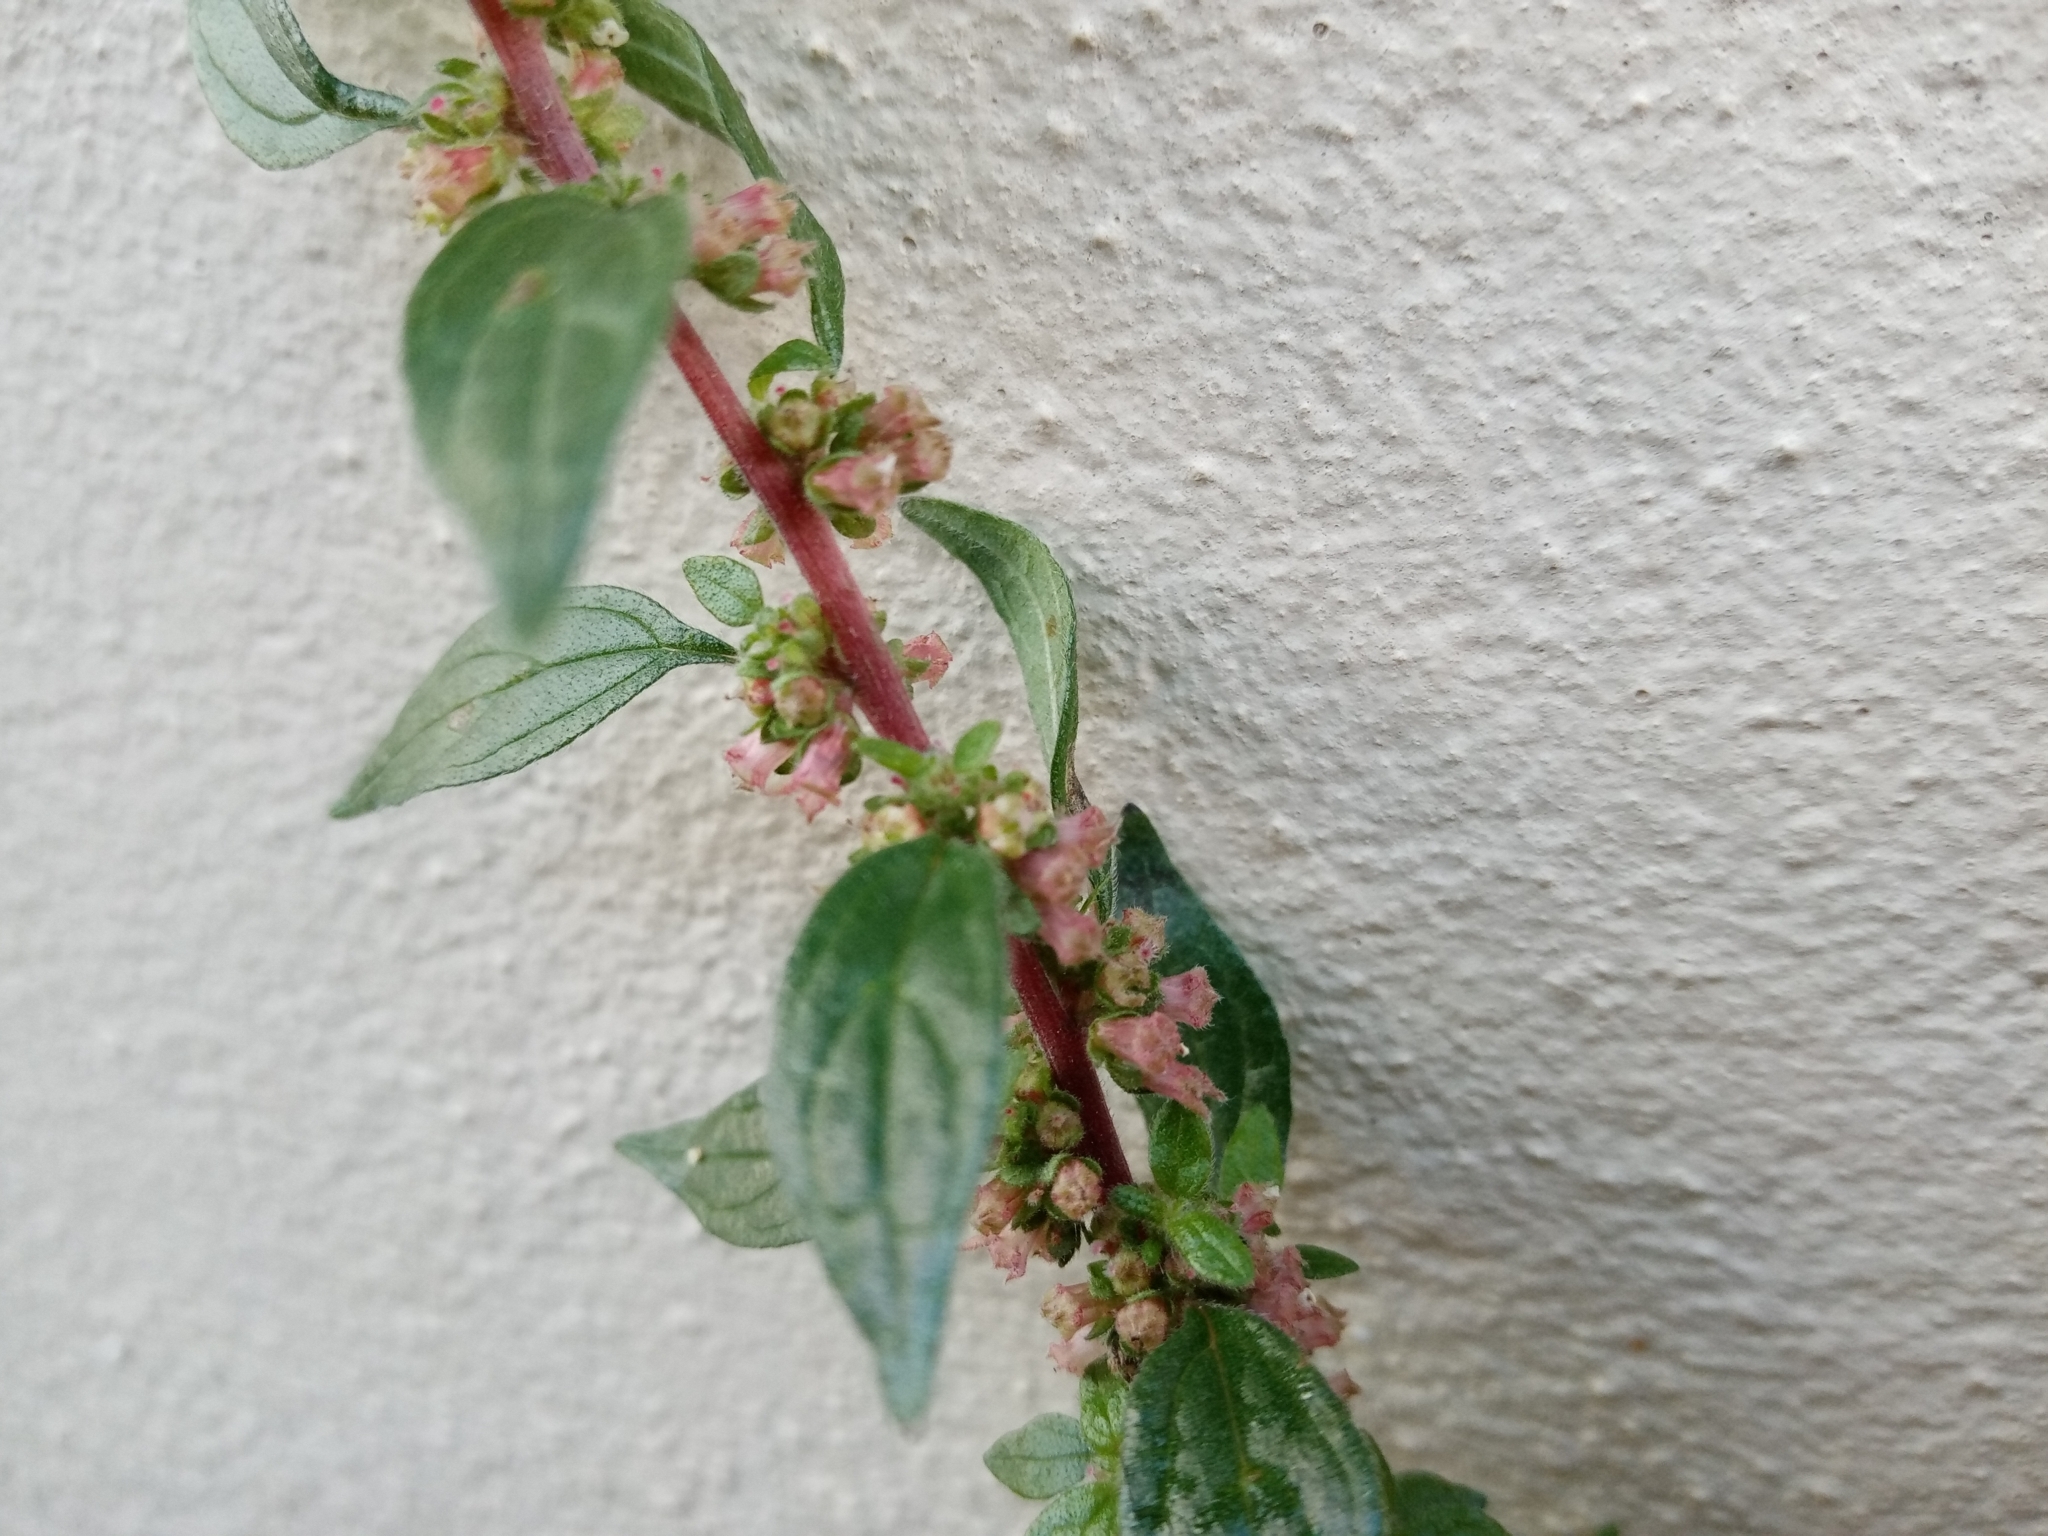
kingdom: Plantae
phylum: Tracheophyta
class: Magnoliopsida
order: Rosales
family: Urticaceae
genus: Parietaria
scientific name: Parietaria judaica
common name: Pellitory-of-the-wall
